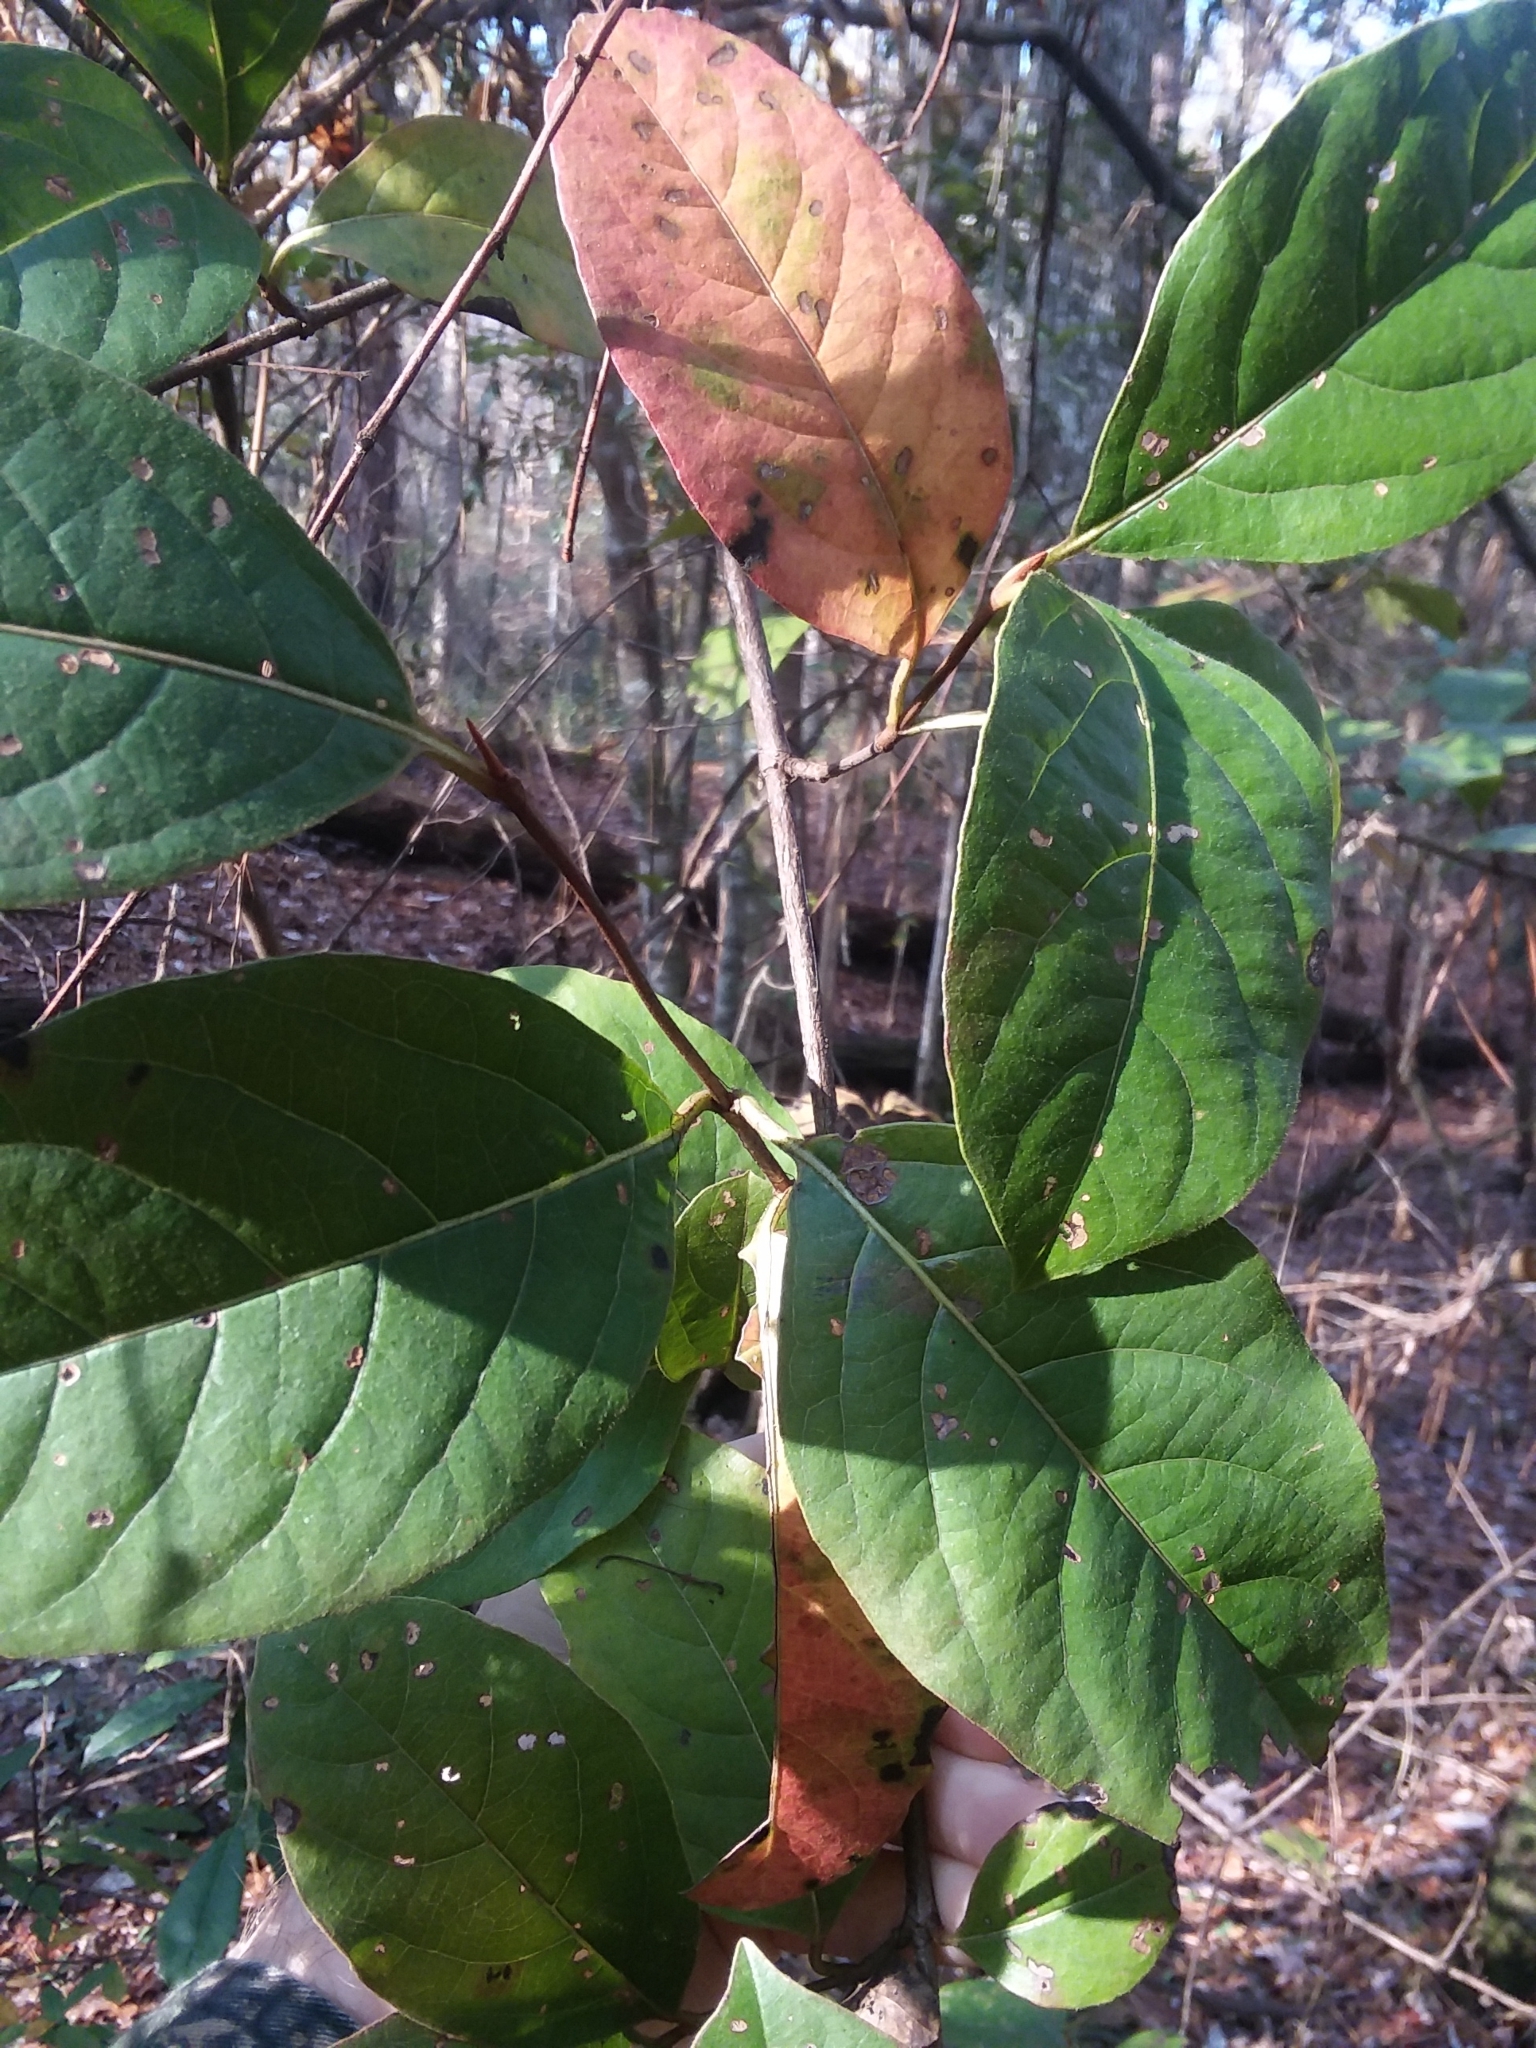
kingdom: Plantae
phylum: Tracheophyta
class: Magnoliopsida
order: Dipsacales
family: Viburnaceae
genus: Viburnum
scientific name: Viburnum nudum
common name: Possum haw
